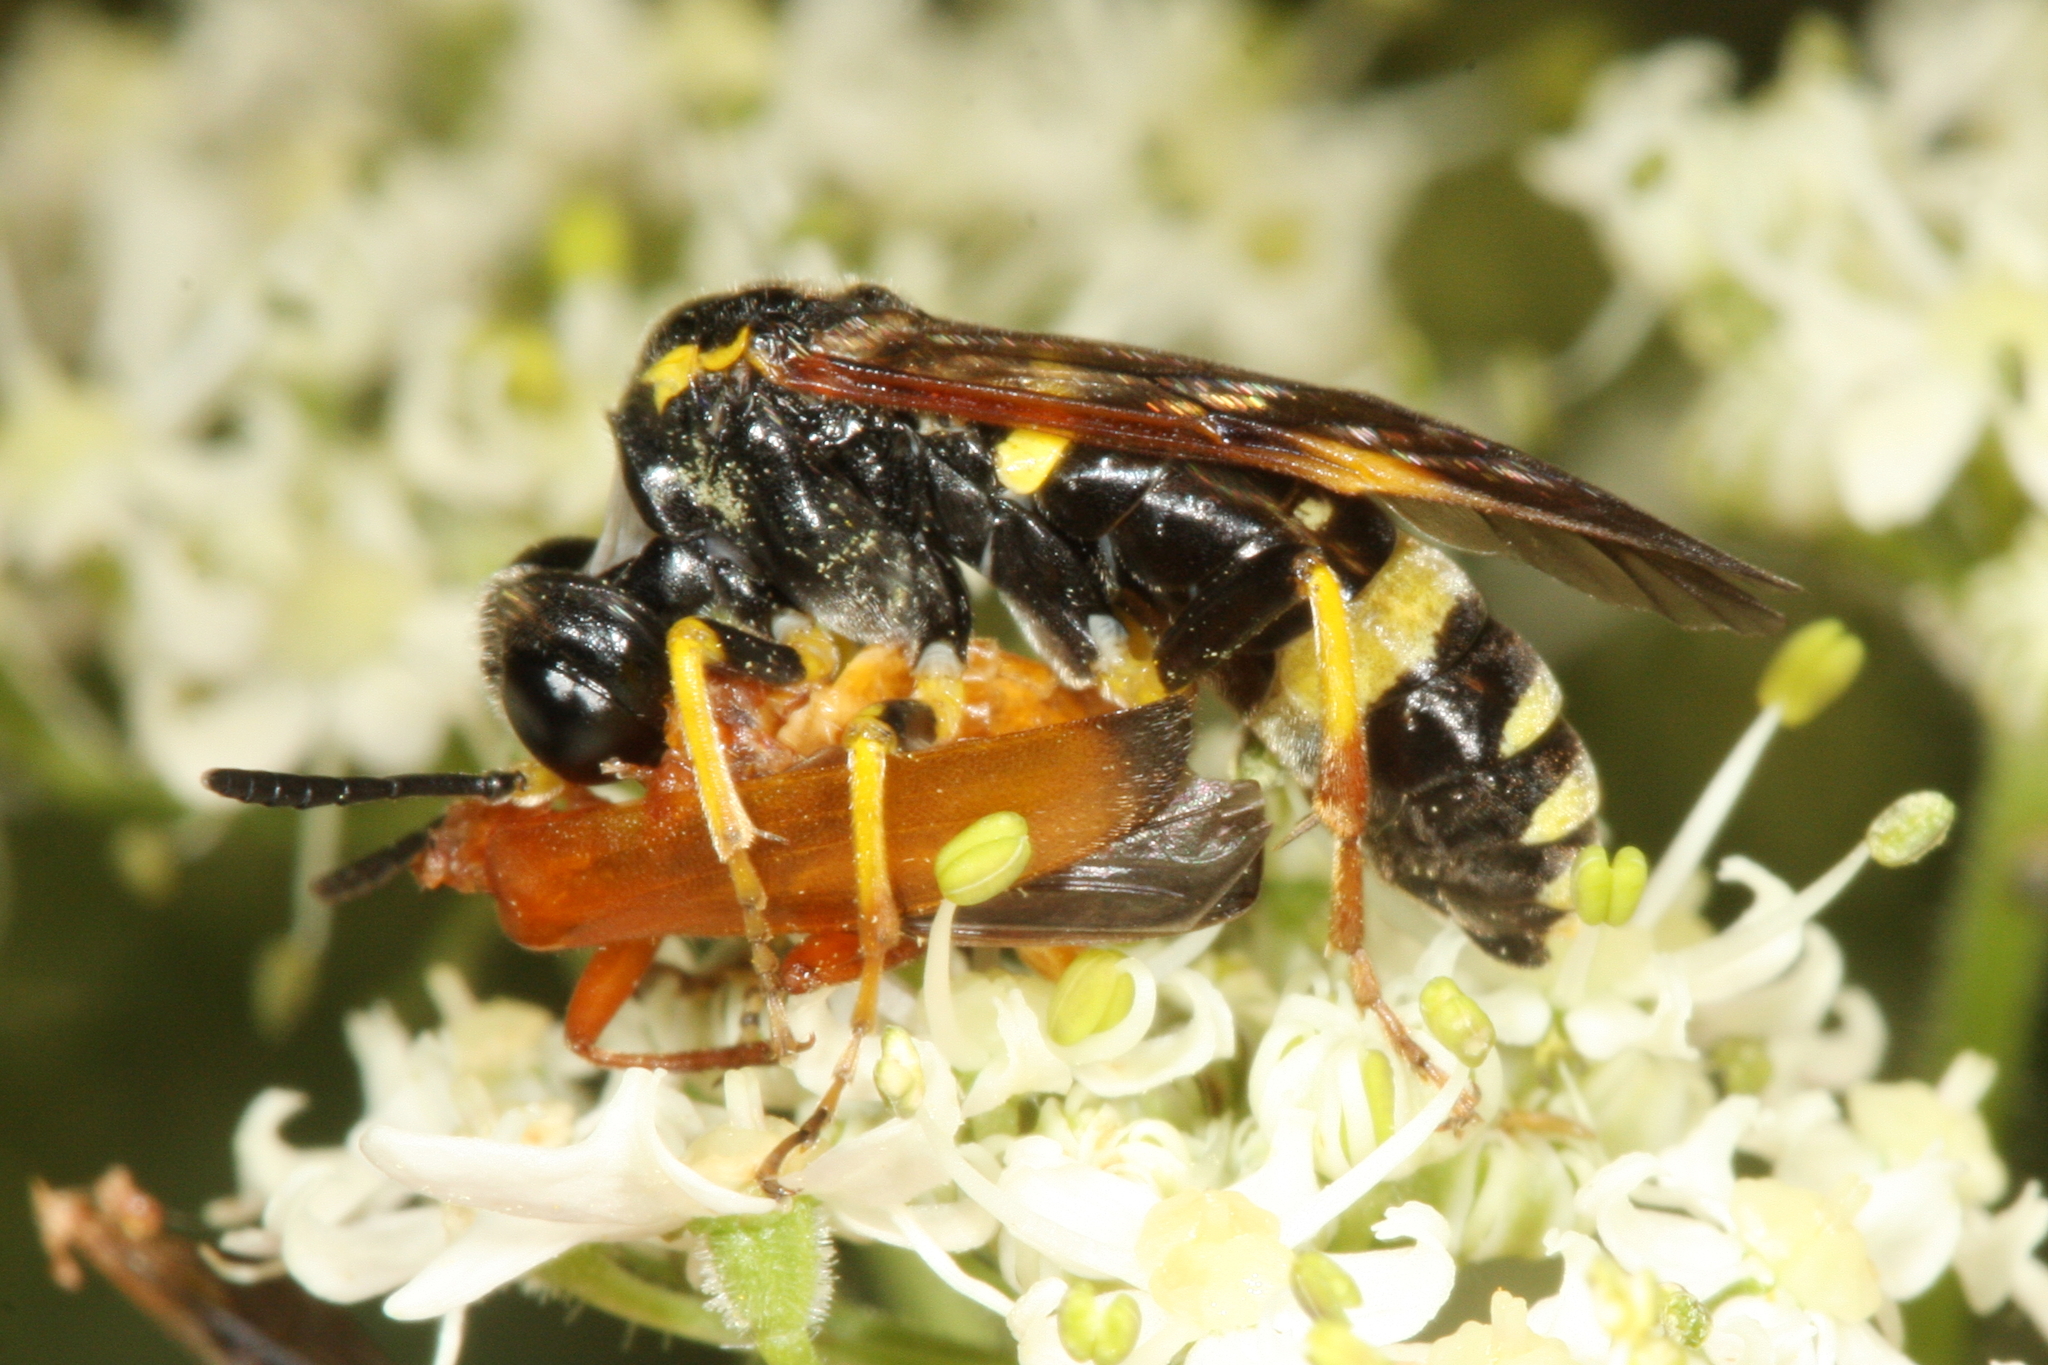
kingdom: Animalia
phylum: Arthropoda
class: Insecta
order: Hymenoptera
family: Tenthredinidae
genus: Tenthredo
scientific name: Tenthredo amoena
